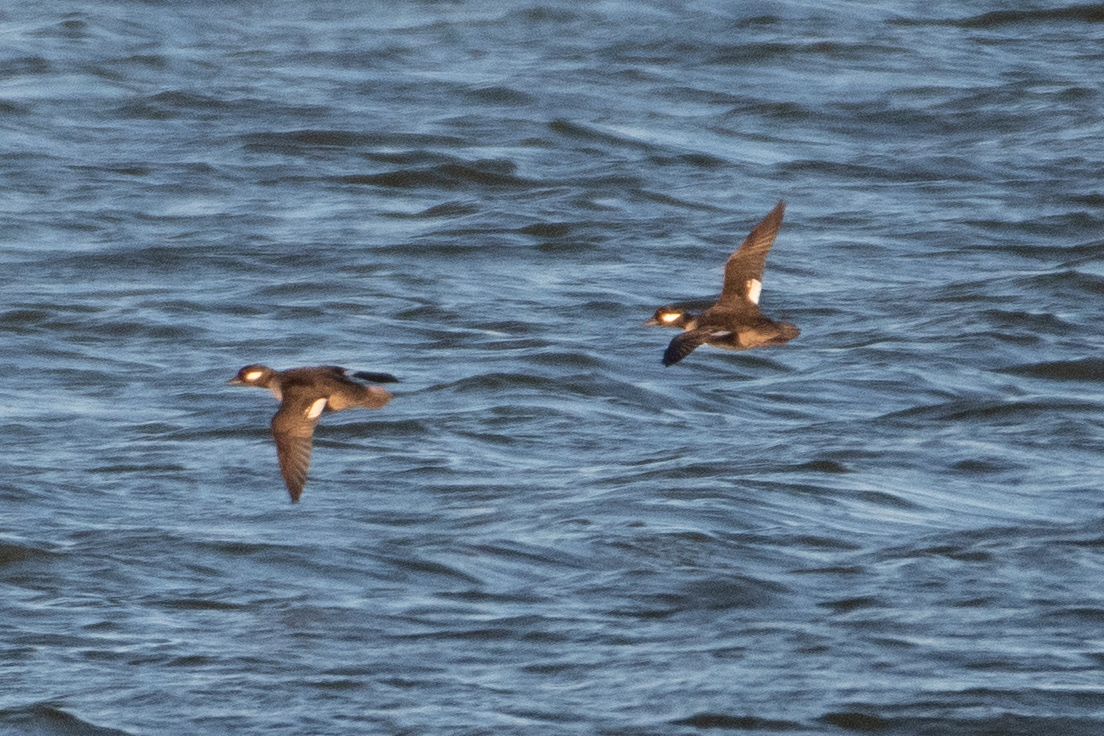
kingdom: Animalia
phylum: Chordata
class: Aves
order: Anseriformes
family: Anatidae
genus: Bucephala
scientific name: Bucephala albeola
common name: Bufflehead
